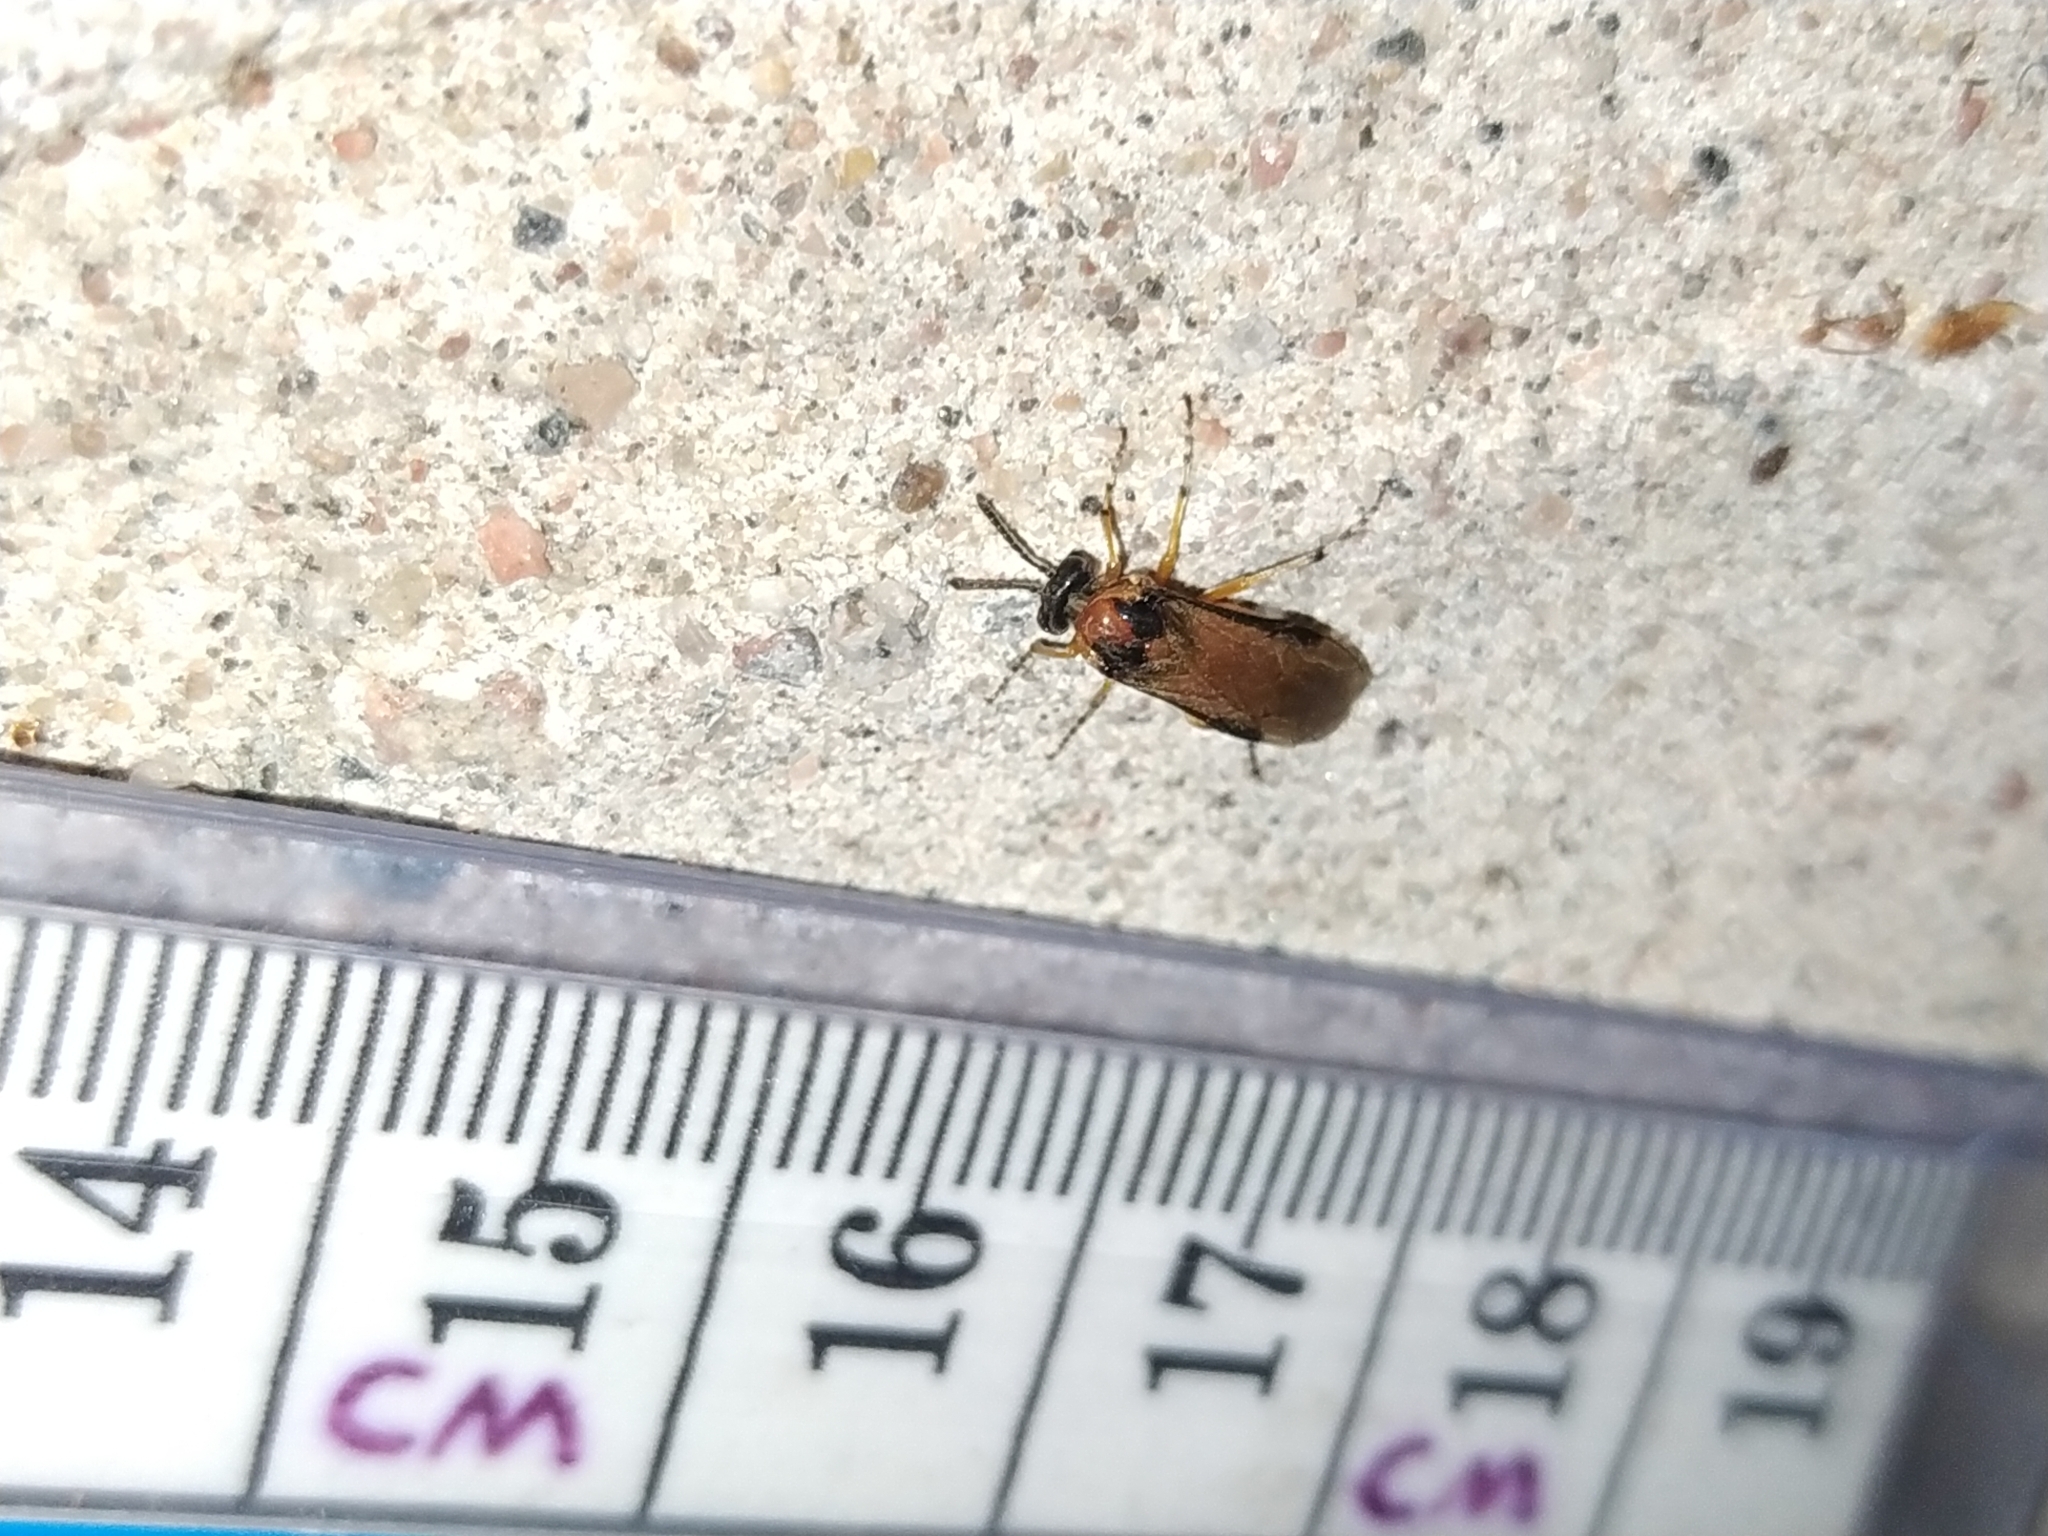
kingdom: Animalia
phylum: Arthropoda
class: Insecta
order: Hymenoptera
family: Tenthredinidae
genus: Athalia
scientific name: Athalia rosae
